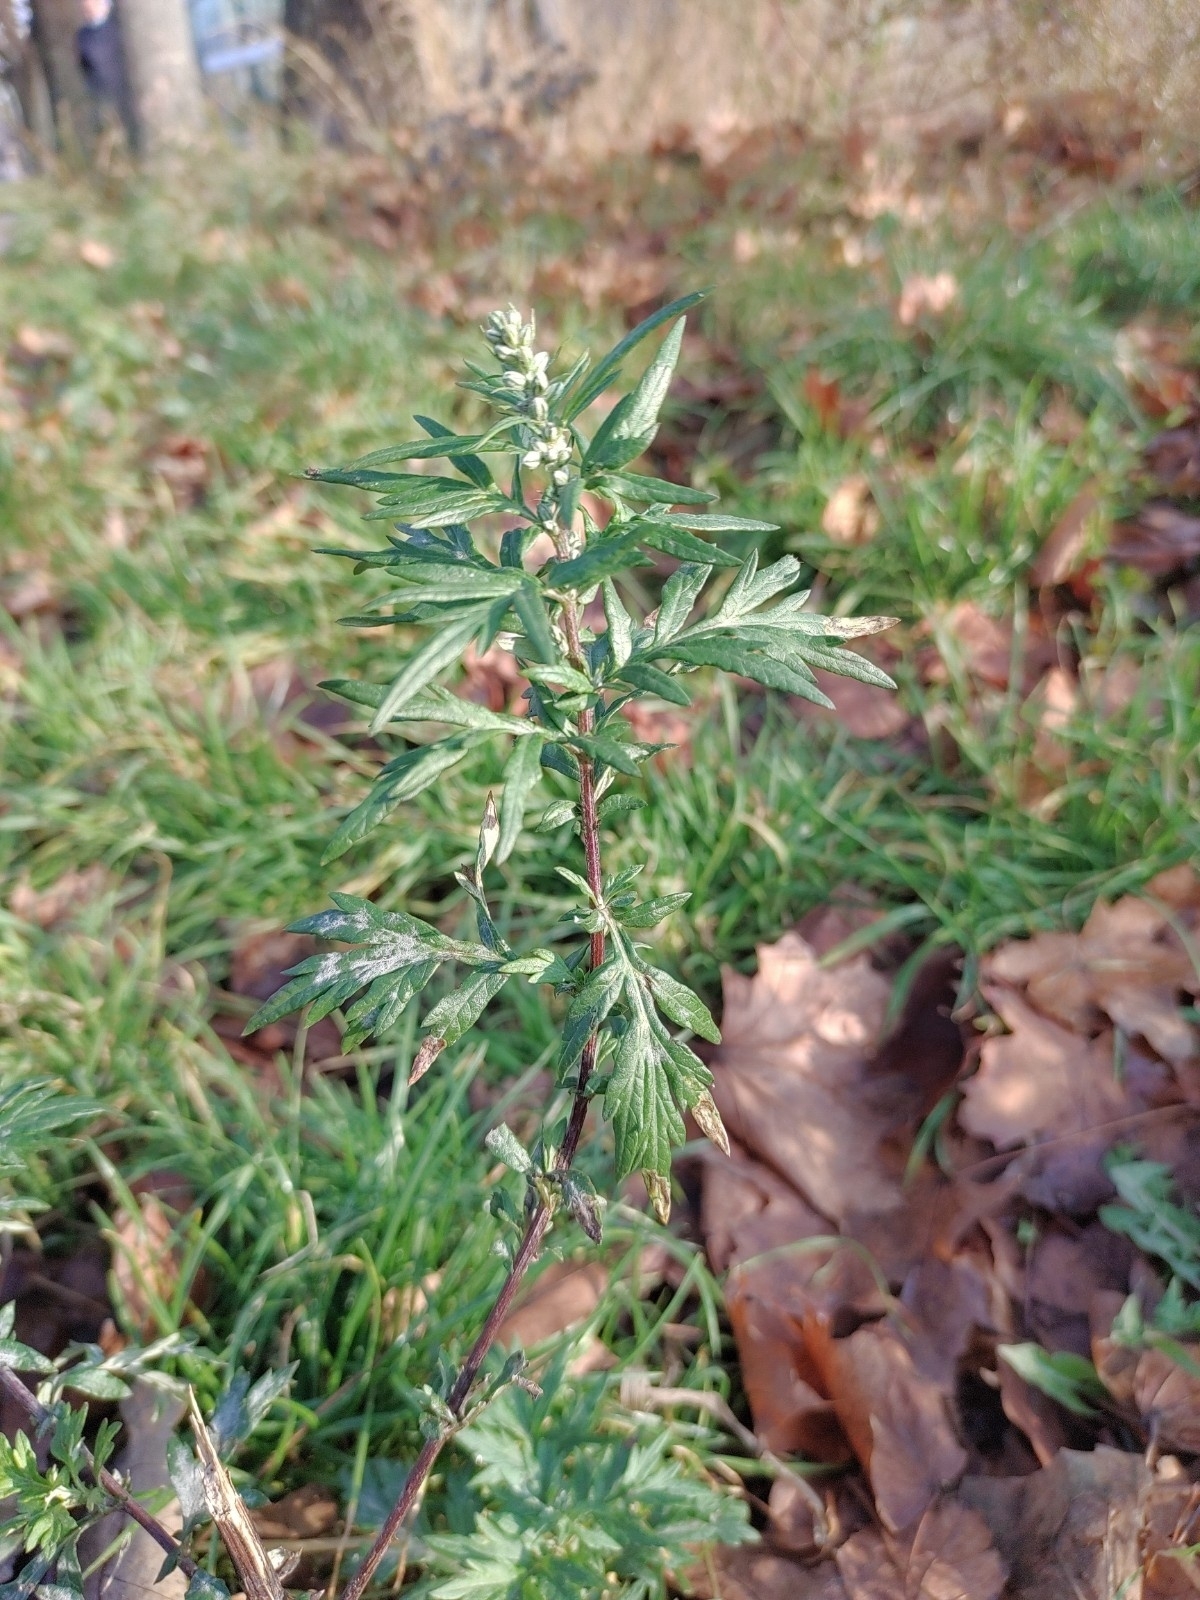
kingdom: Plantae
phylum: Tracheophyta
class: Magnoliopsida
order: Asterales
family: Asteraceae
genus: Artemisia
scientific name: Artemisia vulgaris
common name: Mugwort
